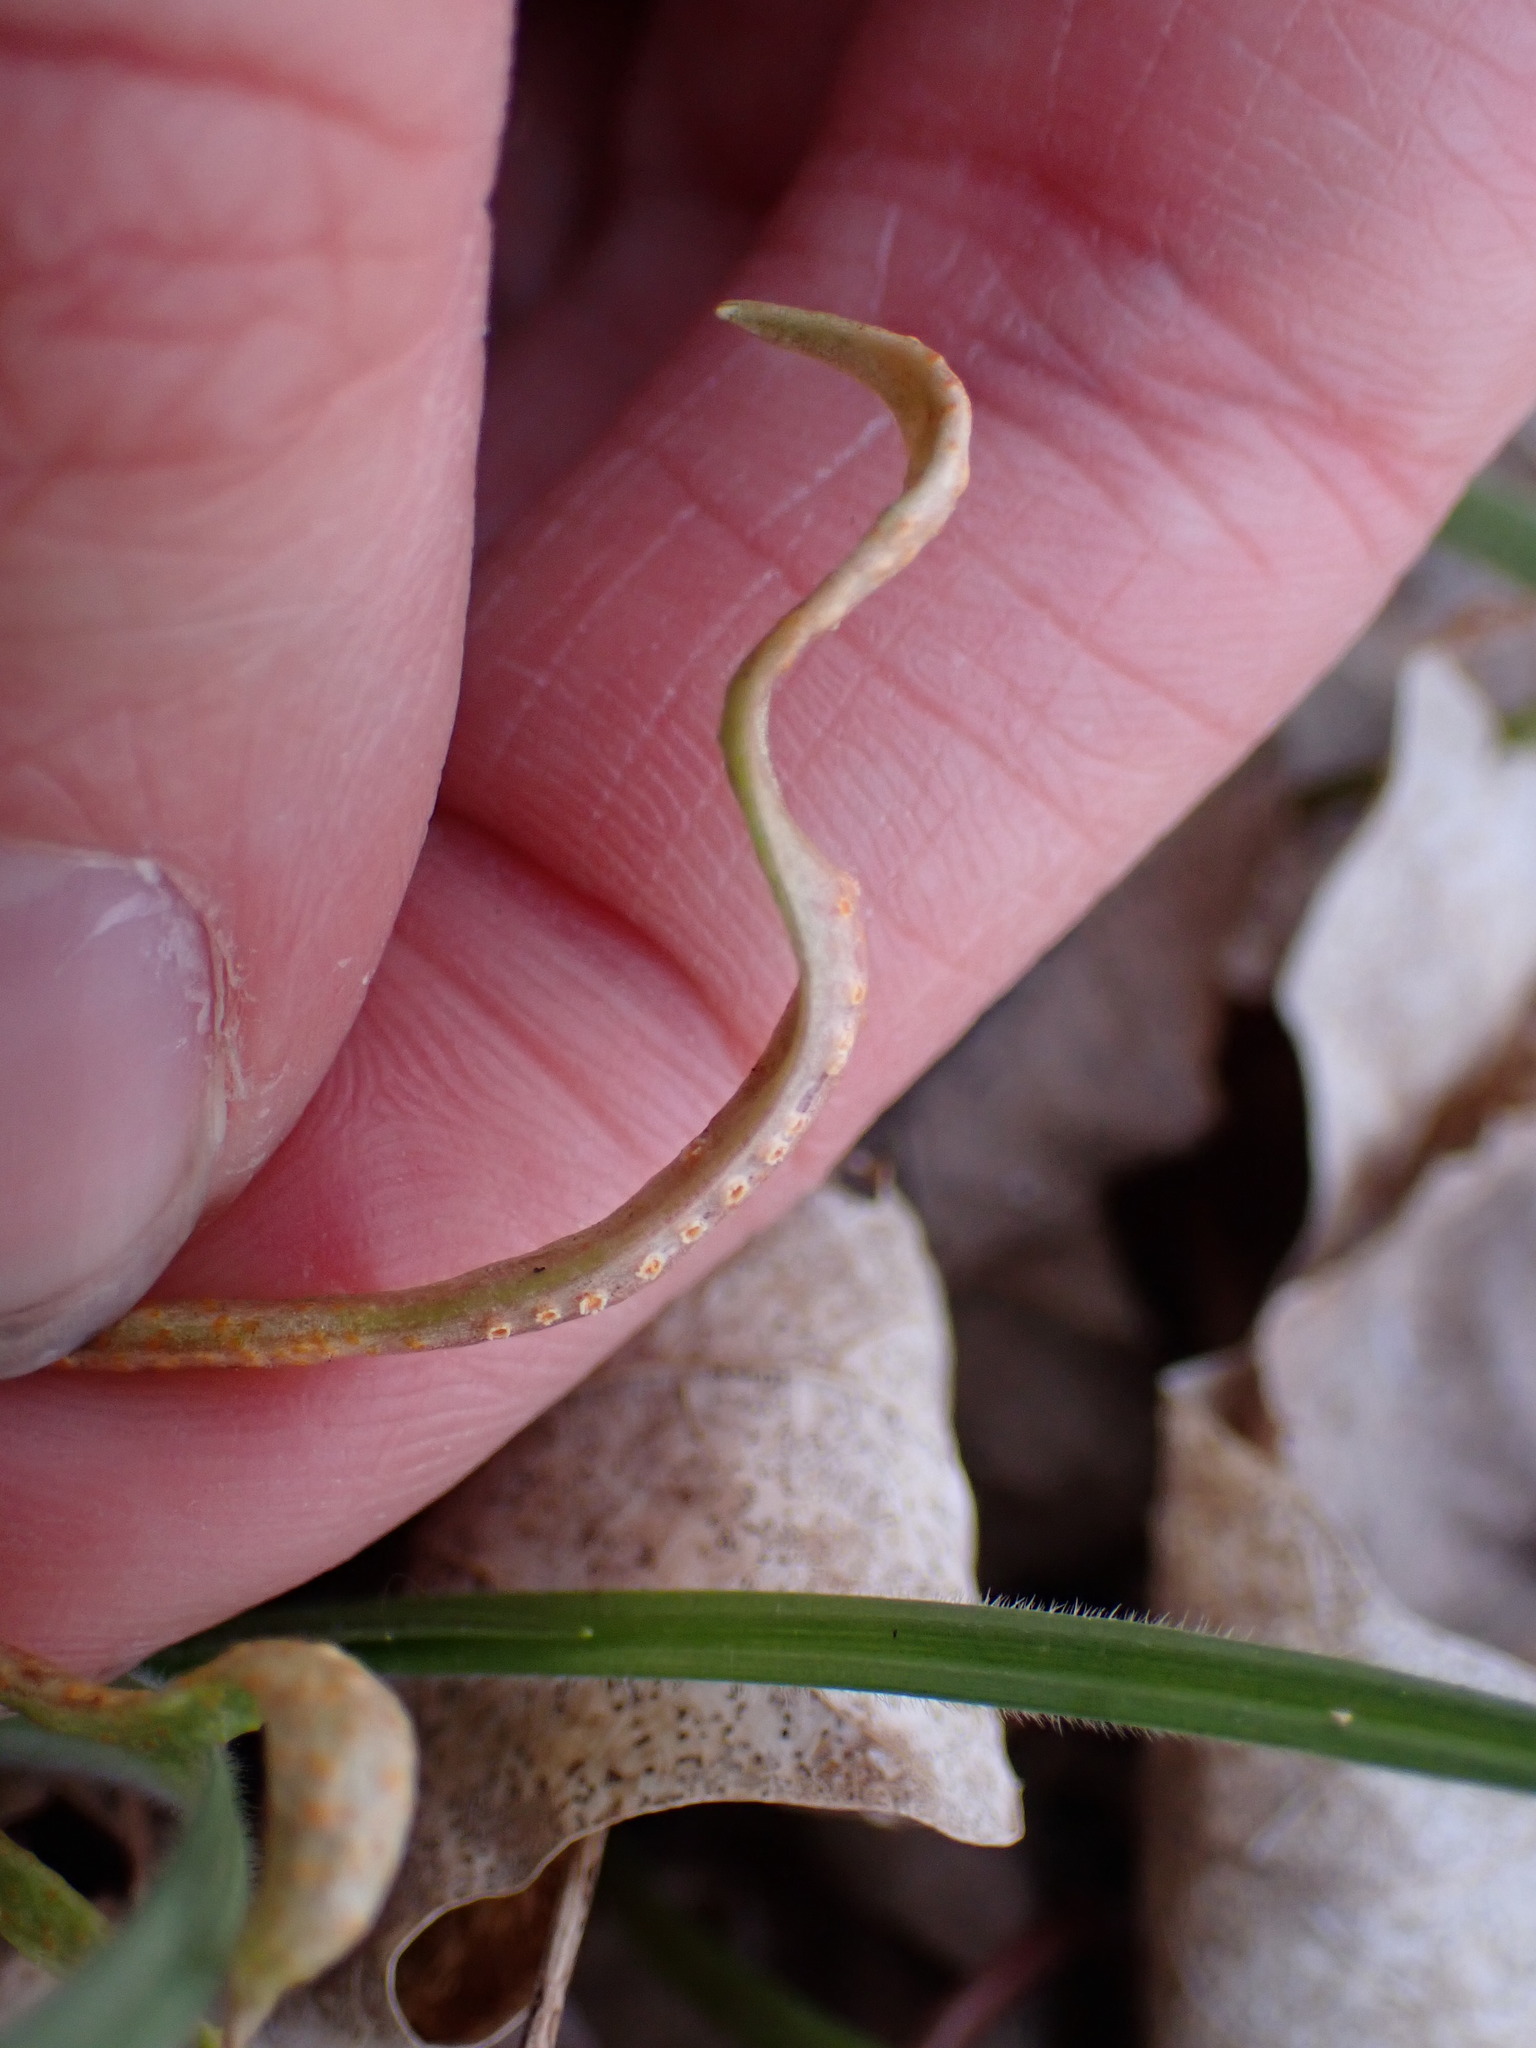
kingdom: Fungi
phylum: Basidiomycota
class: Pucciniomycetes
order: Pucciniales
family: Pucciniaceae
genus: Puccinia
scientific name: Puccinia mariae-wilsoniae
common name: Spring beauty rust
